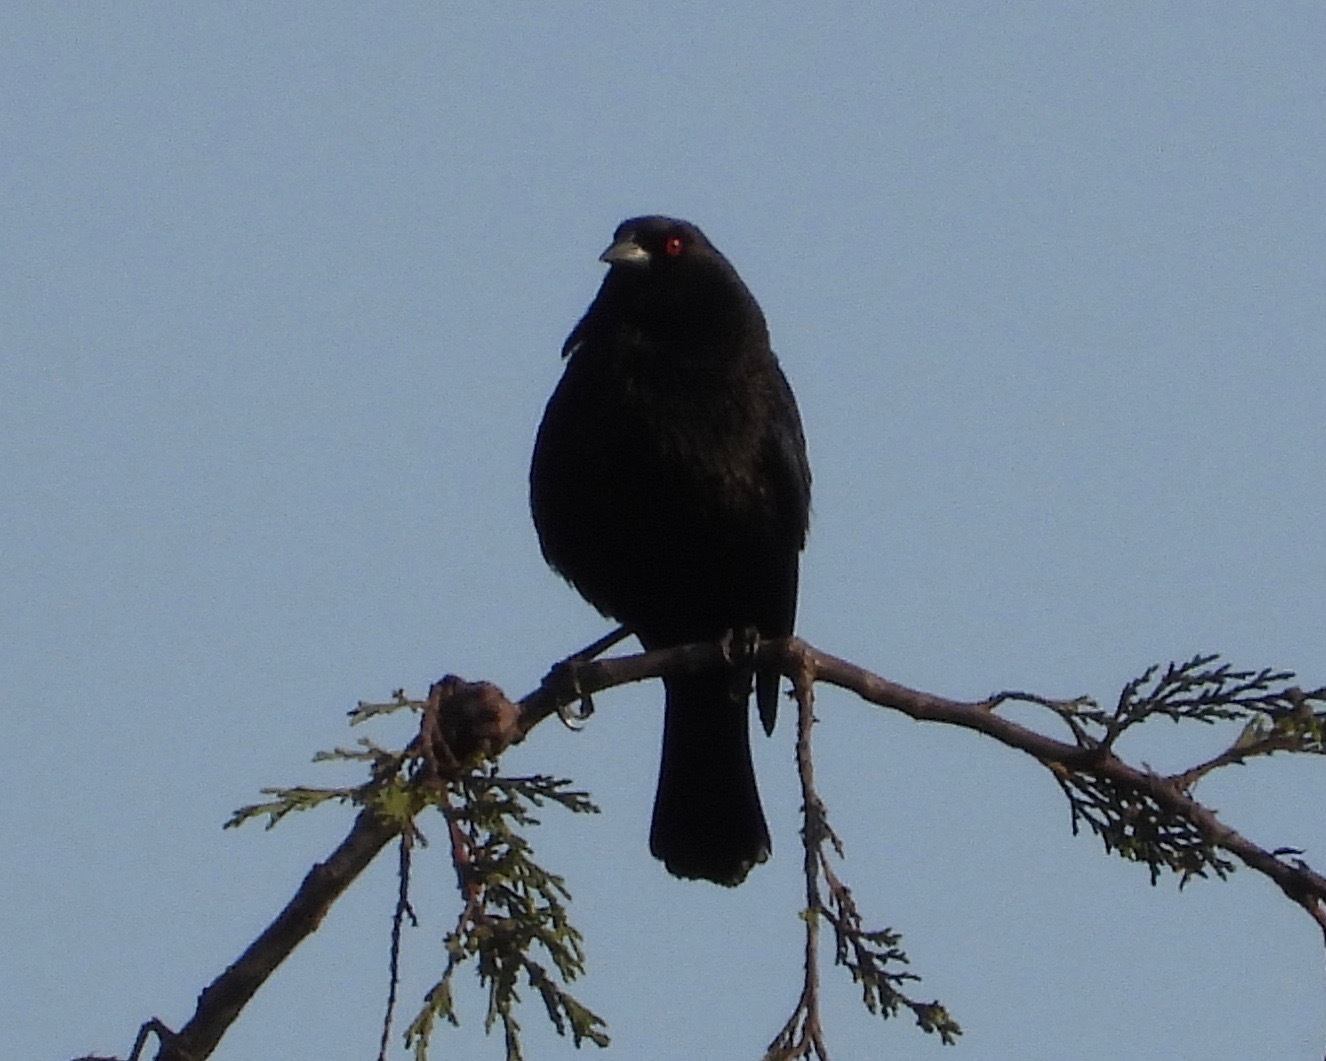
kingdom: Animalia
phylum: Chordata
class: Aves
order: Passeriformes
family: Icteridae
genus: Molothrus
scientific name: Molothrus aeneus
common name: Bronzed cowbird
